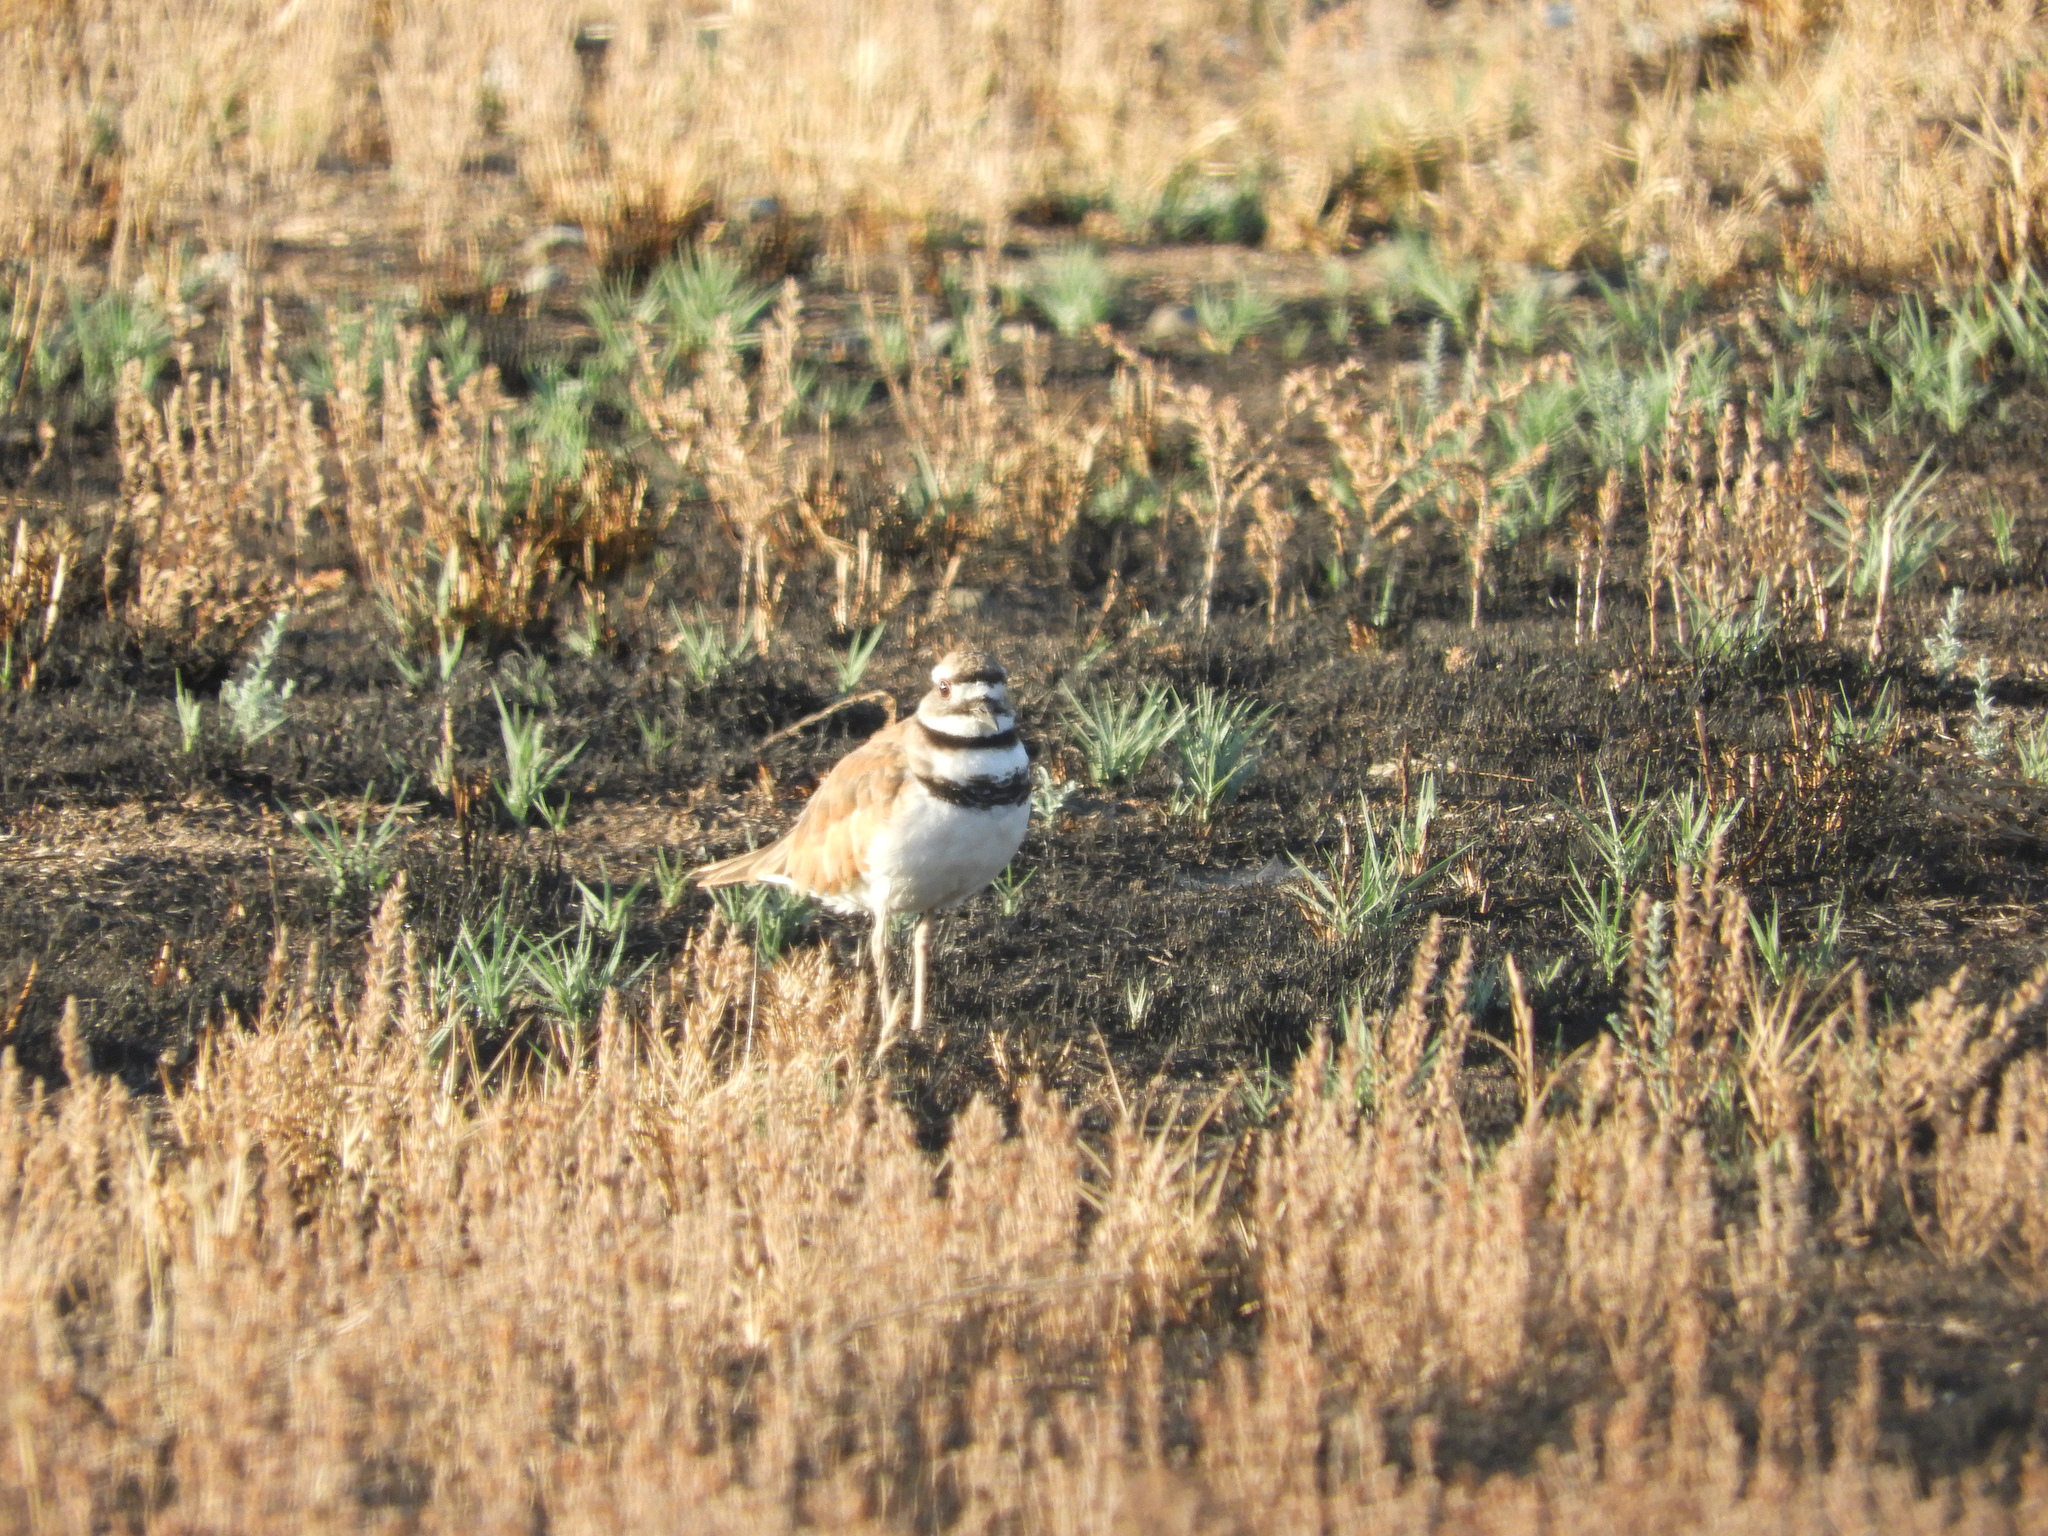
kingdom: Animalia
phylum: Chordata
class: Aves
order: Charadriiformes
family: Charadriidae
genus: Charadrius
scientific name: Charadrius vociferus
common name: Killdeer
